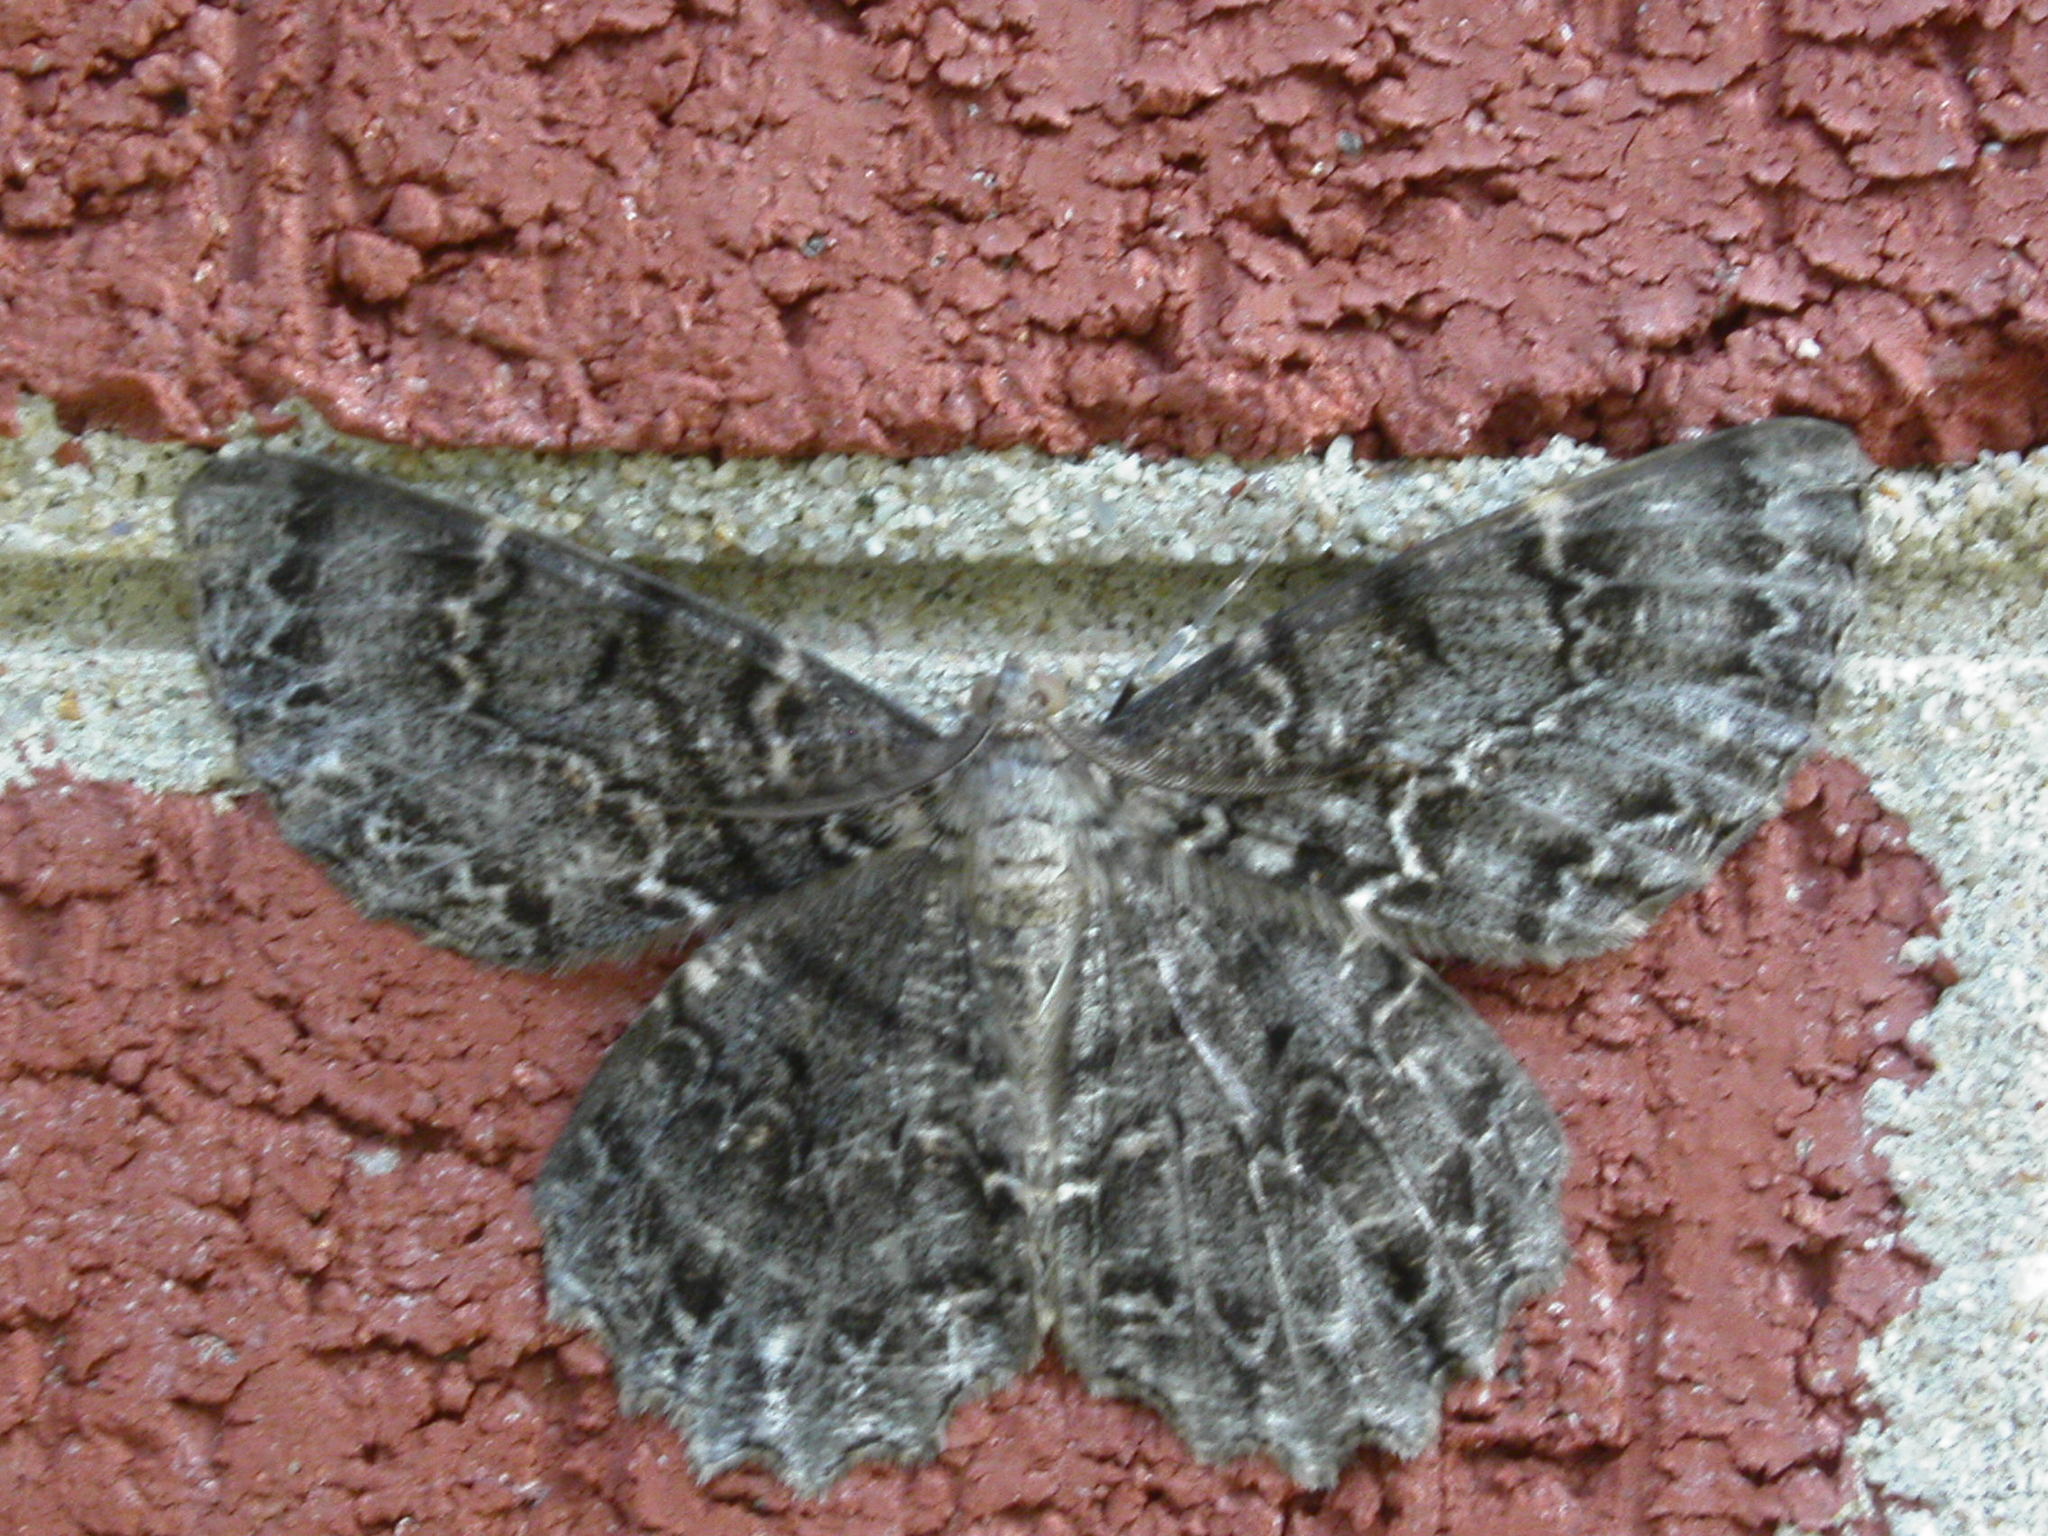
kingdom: Animalia
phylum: Arthropoda
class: Insecta
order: Lepidoptera
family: Geometridae
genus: Epimecis
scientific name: Epimecis hortaria
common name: Tulip-tree beauty
